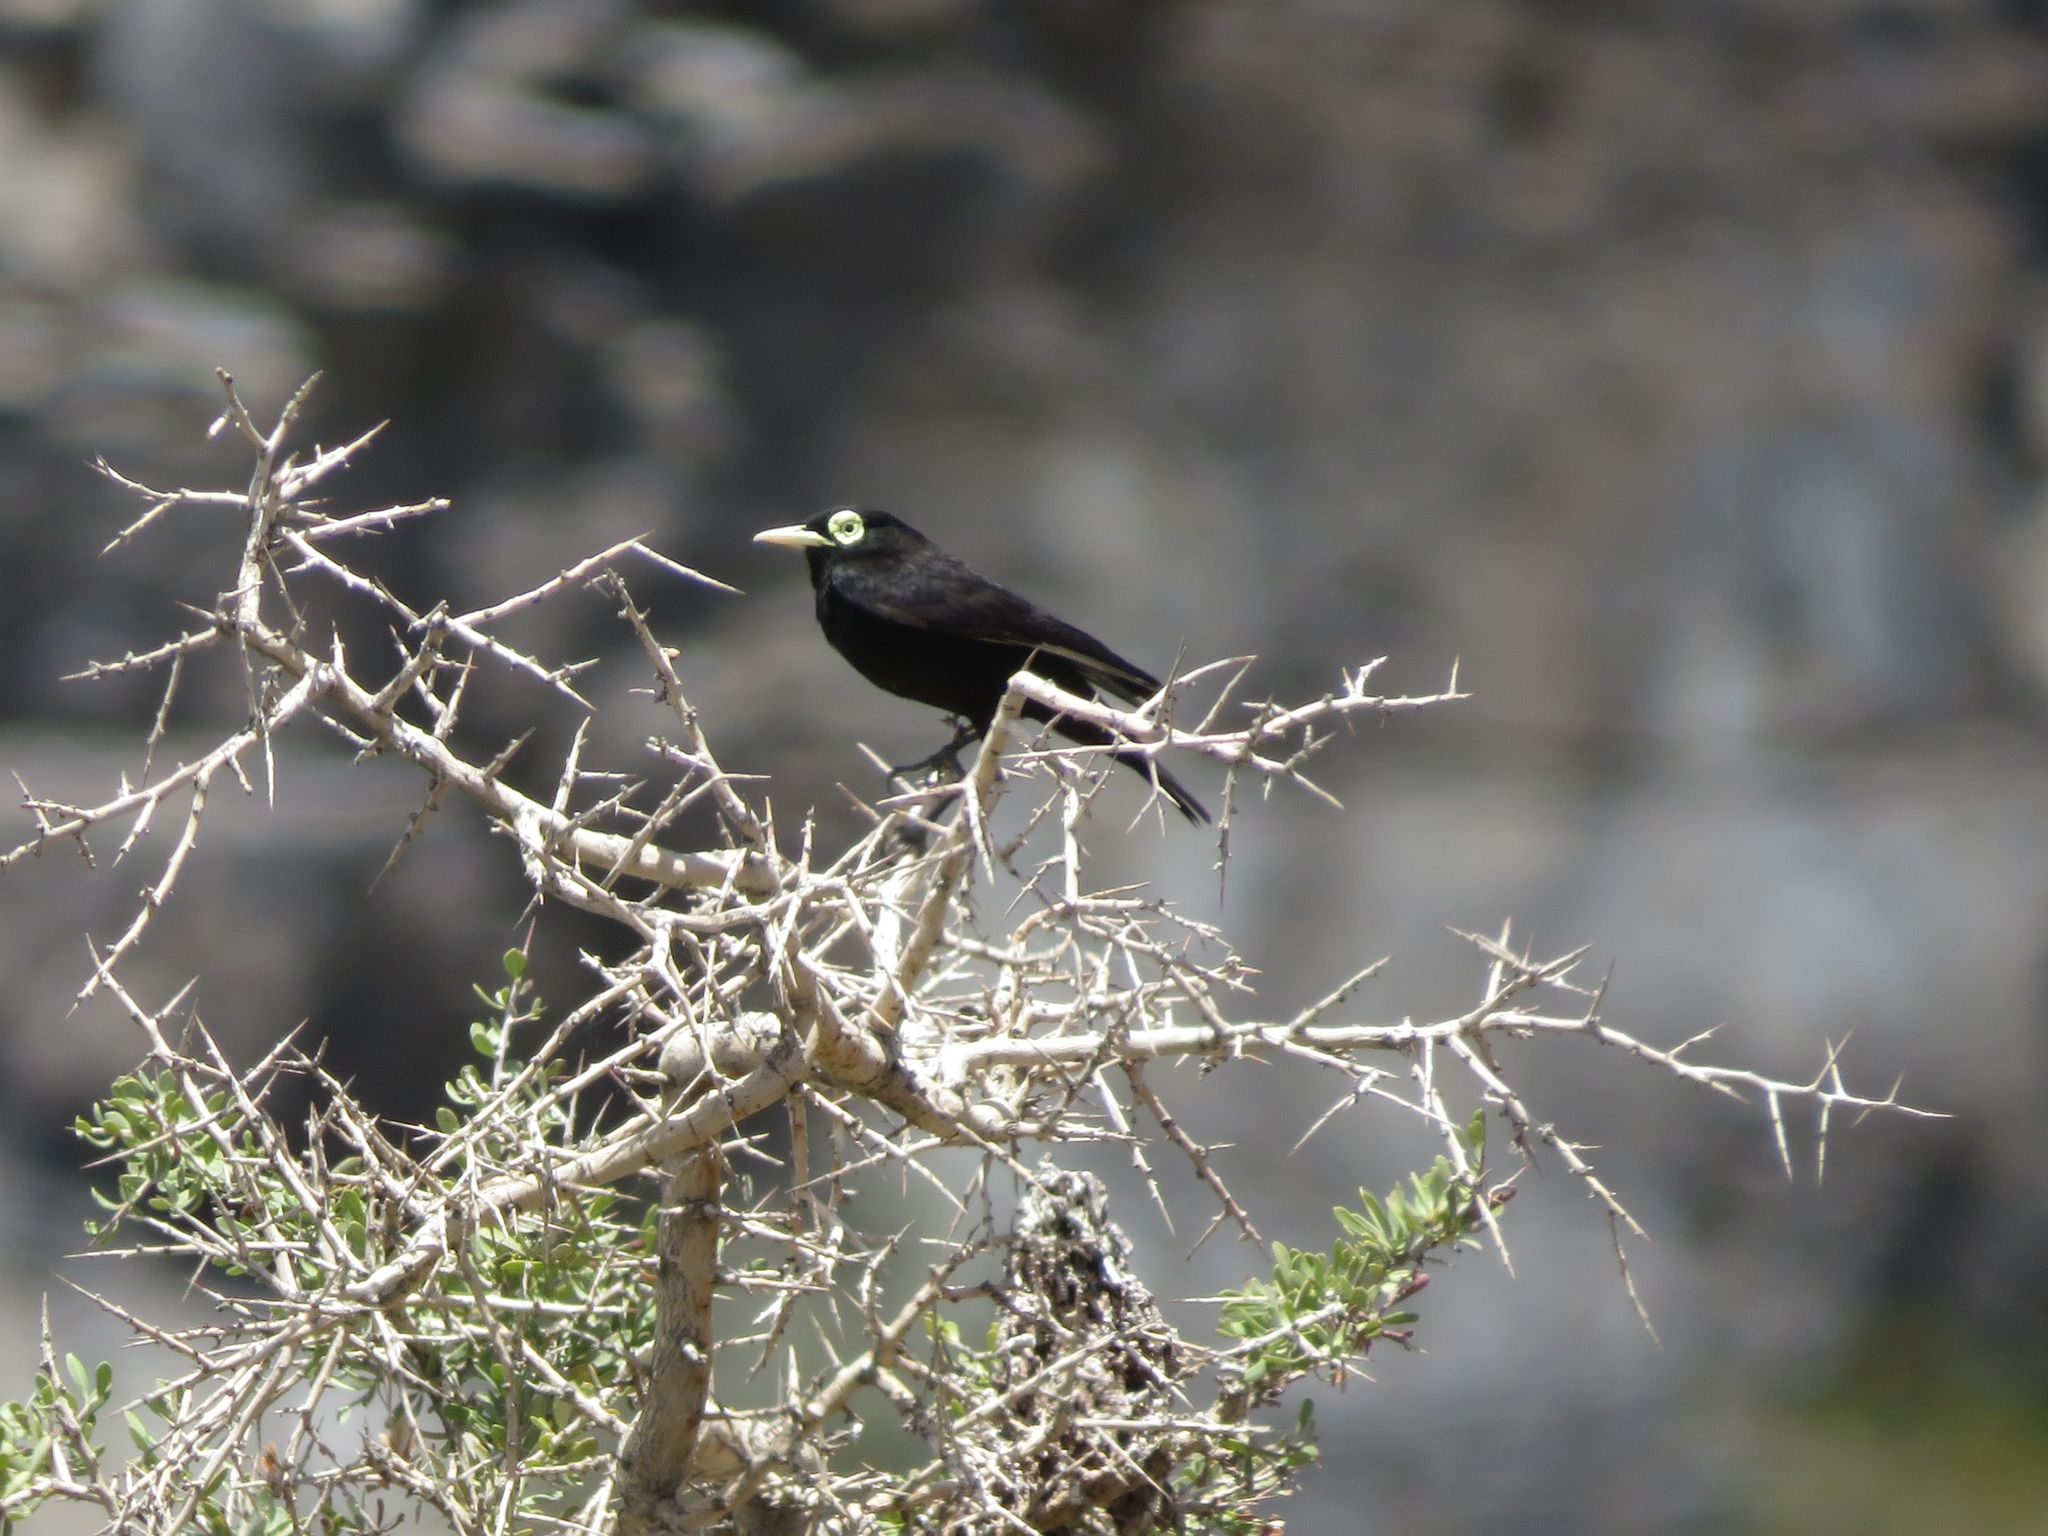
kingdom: Animalia
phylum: Chordata
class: Aves
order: Passeriformes
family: Tyrannidae
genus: Hymenops
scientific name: Hymenops perspicillatus
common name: Spectacled tyrant
